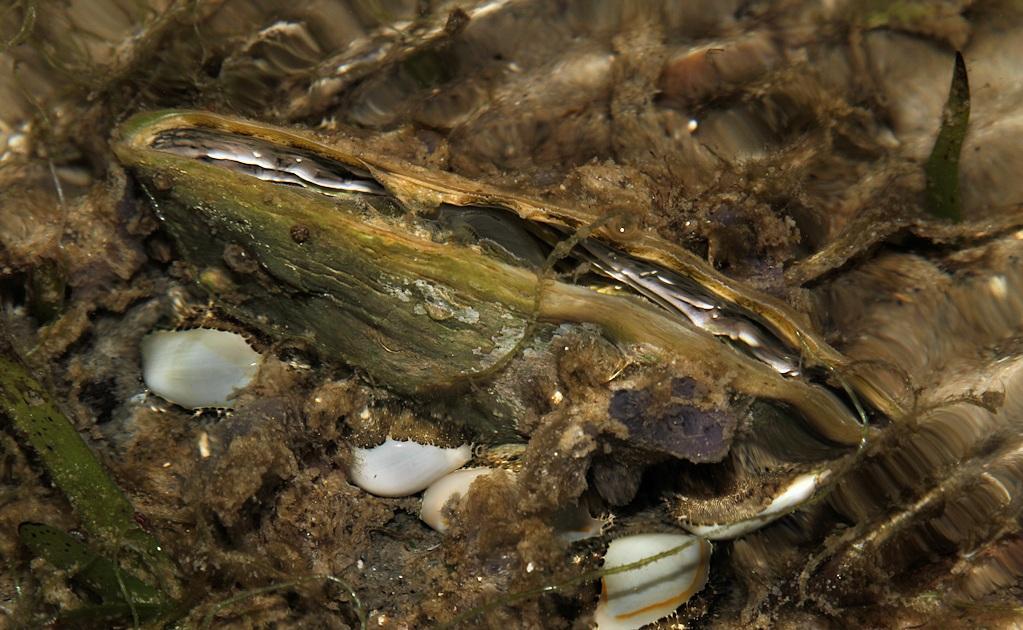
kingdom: Animalia
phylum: Mollusca
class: Bivalvia
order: Ostreida
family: Pinnidae
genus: Pinna
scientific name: Pinna muricata
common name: Prickly pen shell
